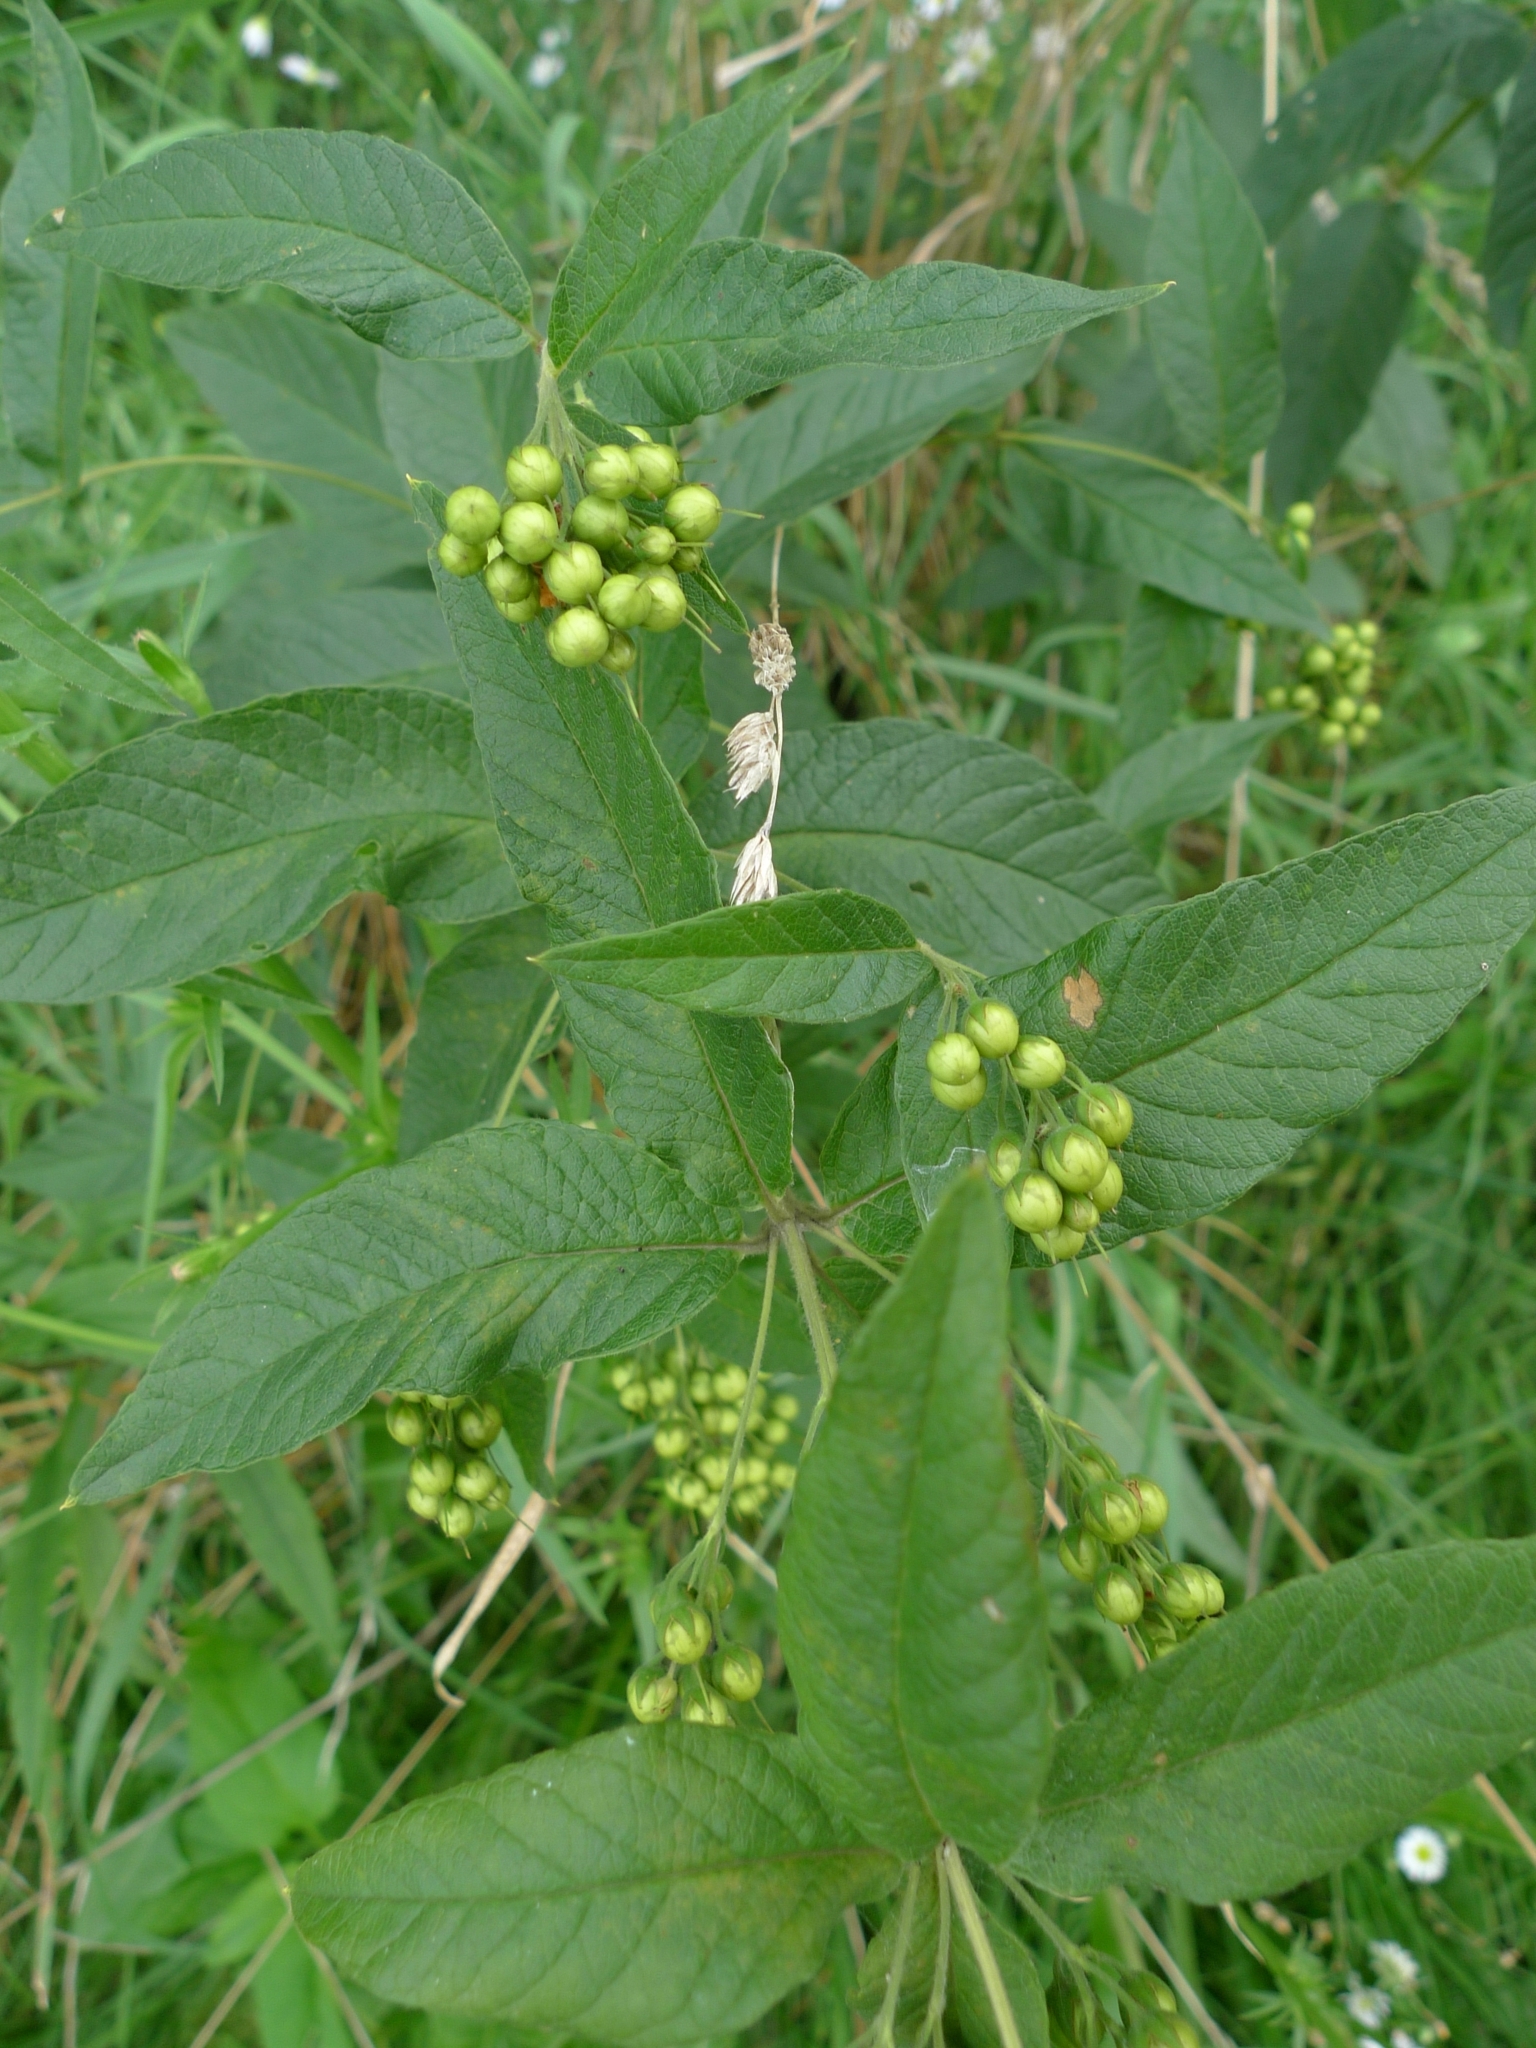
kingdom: Plantae
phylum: Tracheophyta
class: Magnoliopsida
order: Ericales
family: Primulaceae
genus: Lysimachia
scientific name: Lysimachia vulgaris
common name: Yellow loosestrife
